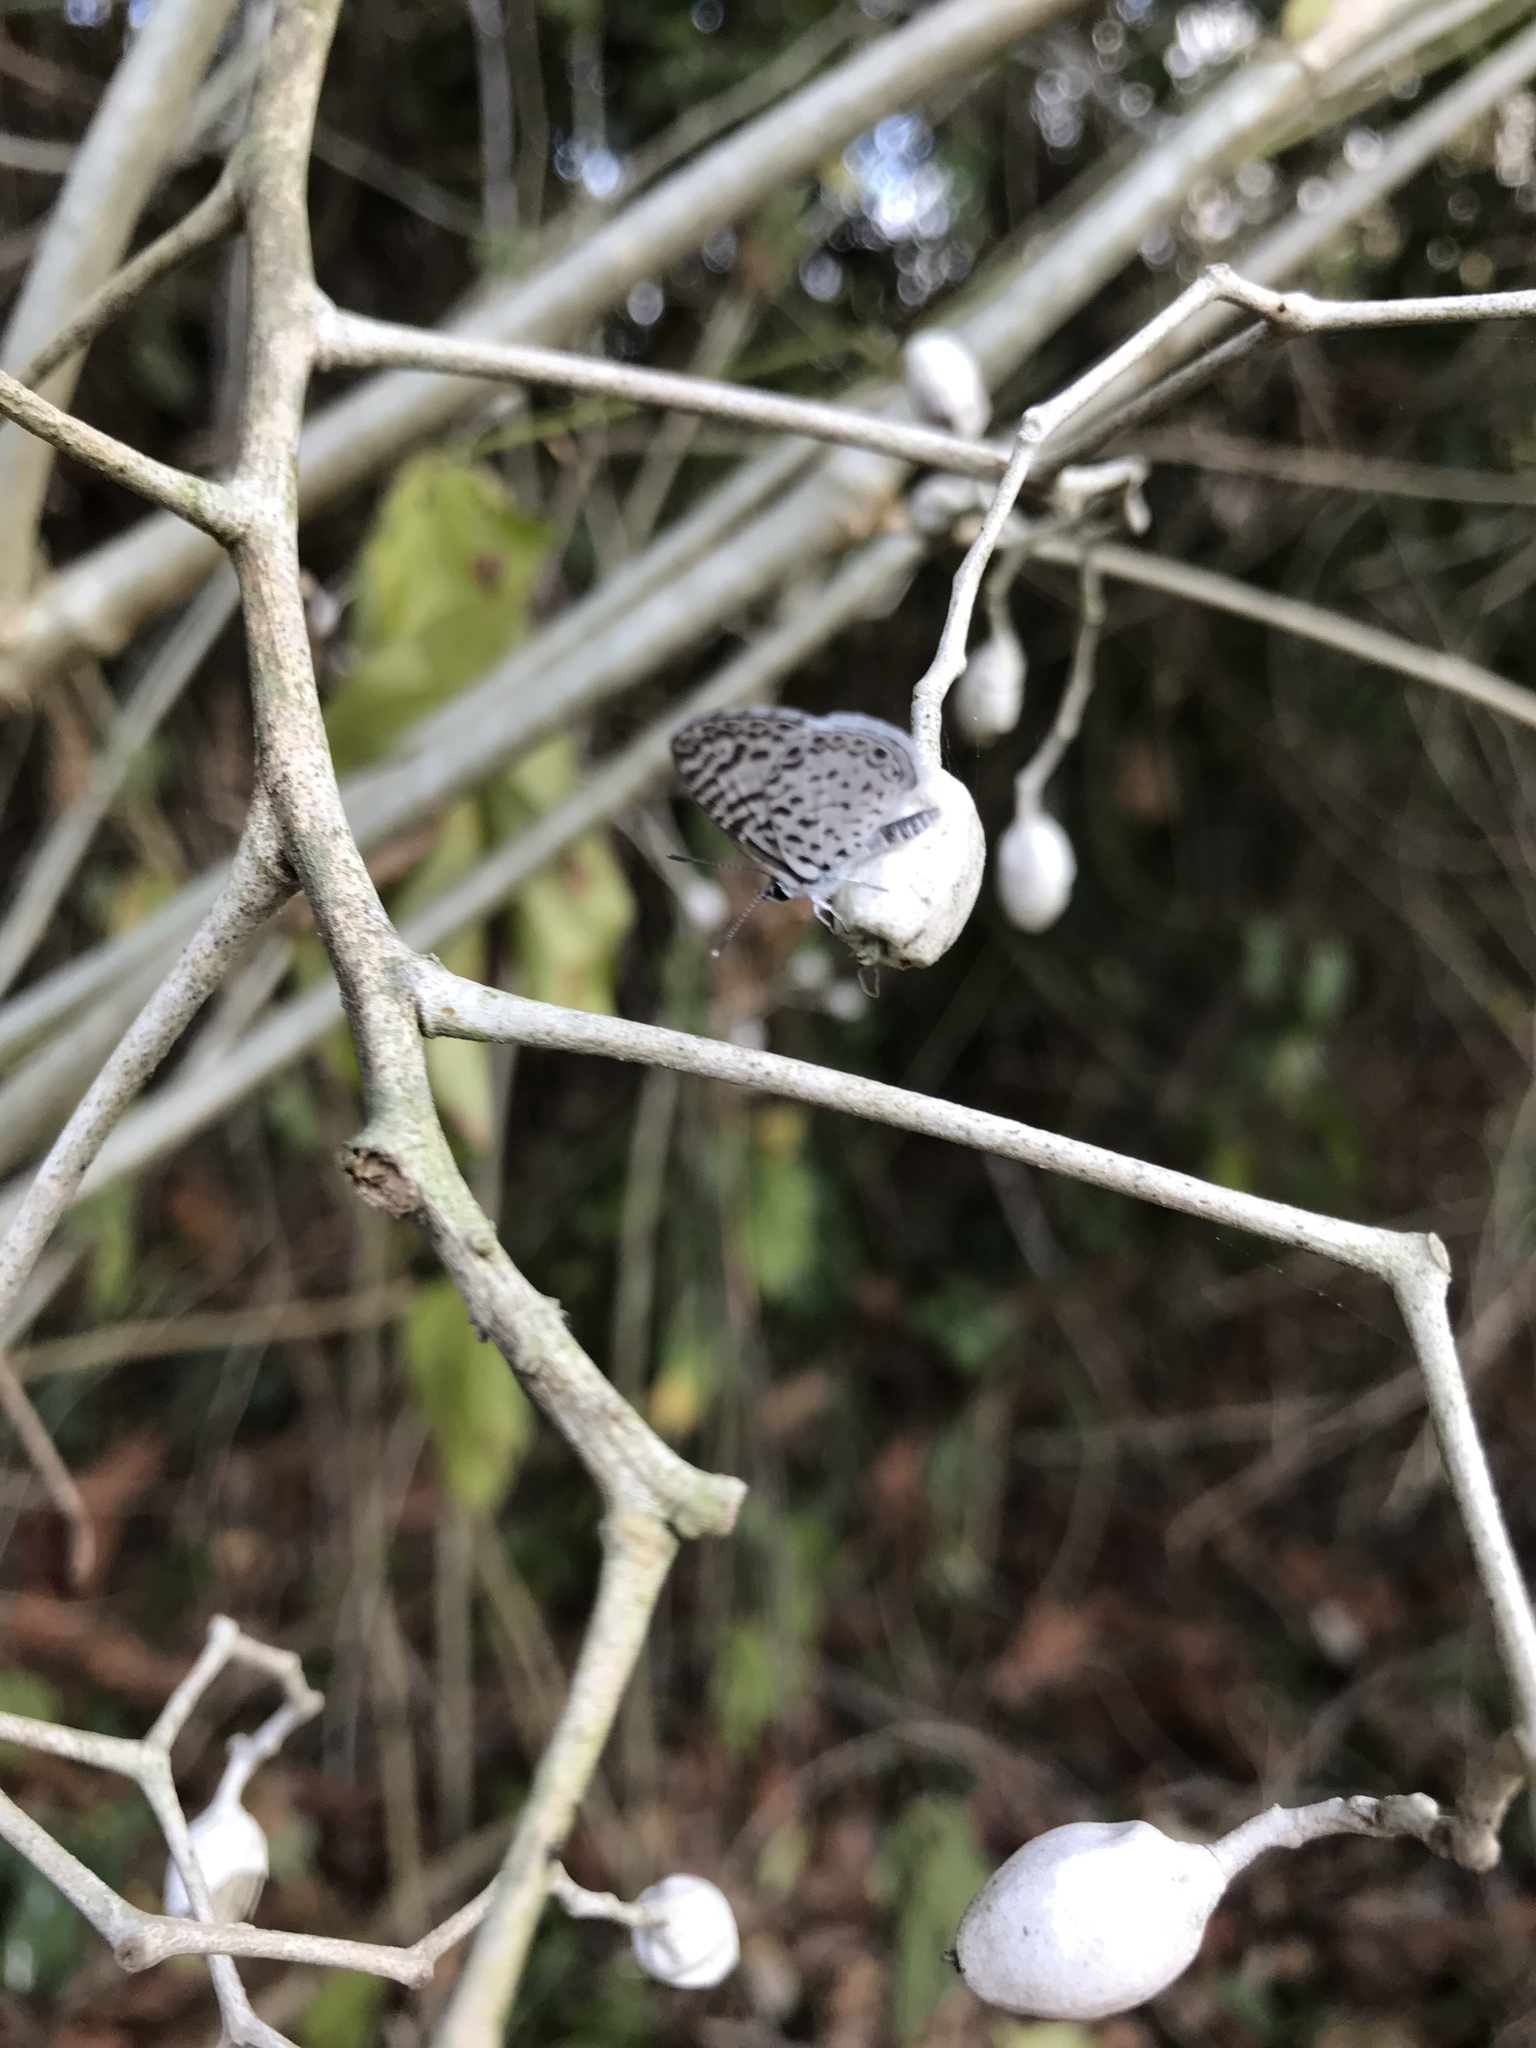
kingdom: Animalia
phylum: Arthropoda
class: Insecta
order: Lepidoptera
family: Lycaenidae
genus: Leptotes
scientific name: Leptotes cassius
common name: Cassius blue
